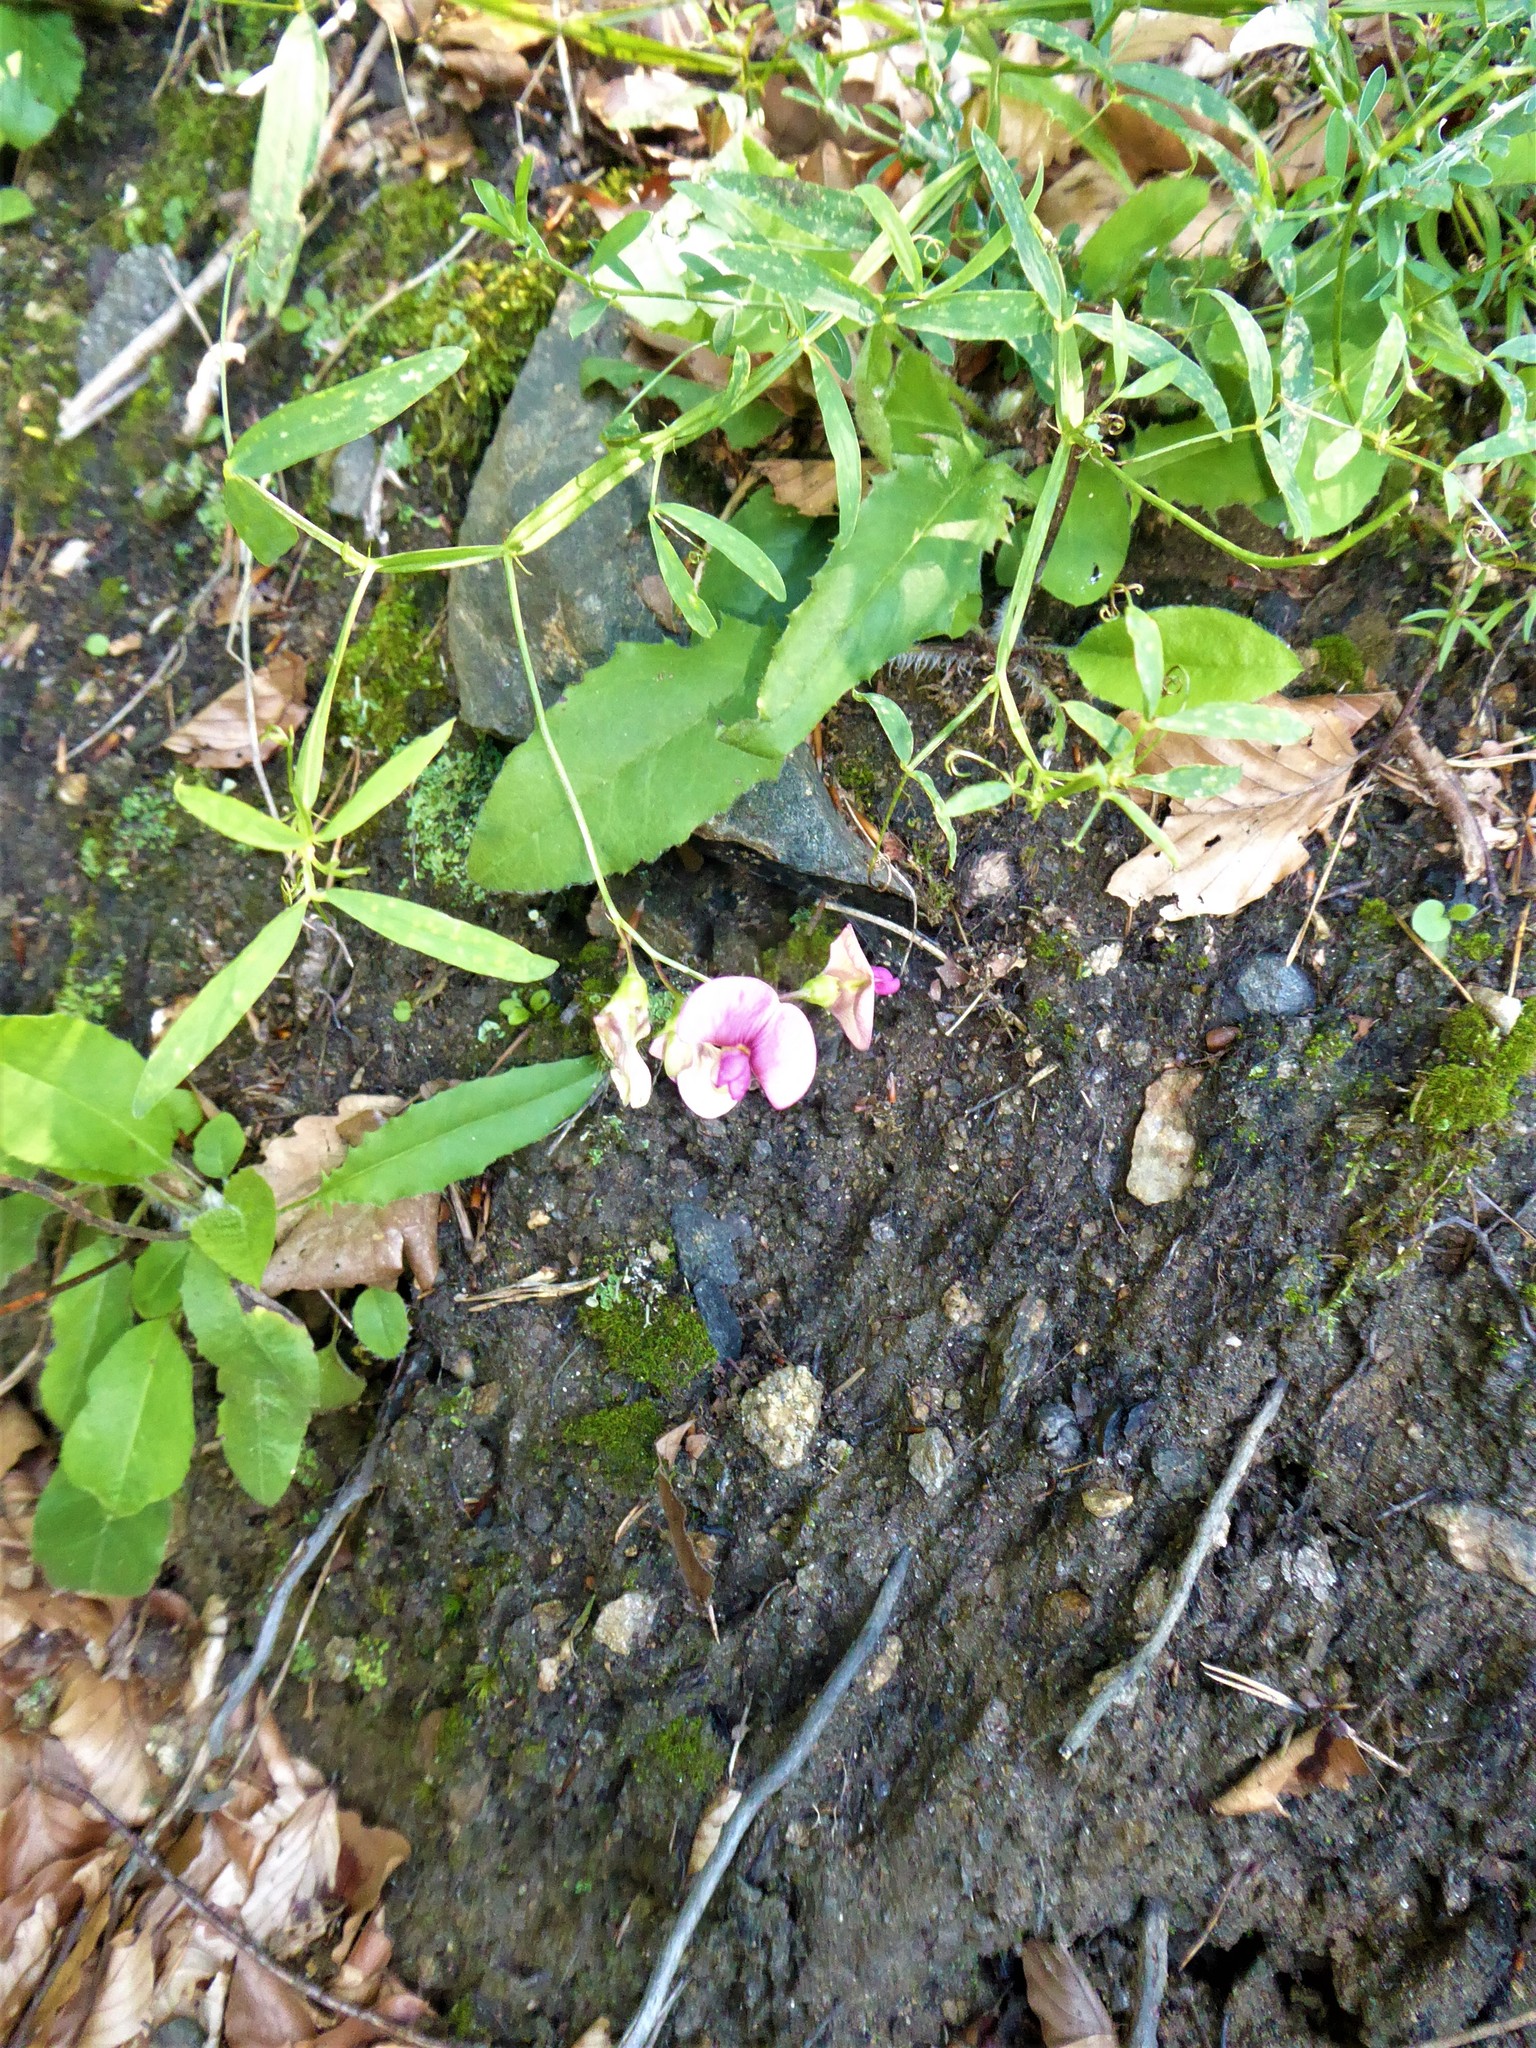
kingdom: Plantae
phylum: Tracheophyta
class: Magnoliopsida
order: Fabales
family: Fabaceae
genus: Lathyrus
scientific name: Lathyrus sylvestris
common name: Flat pea
